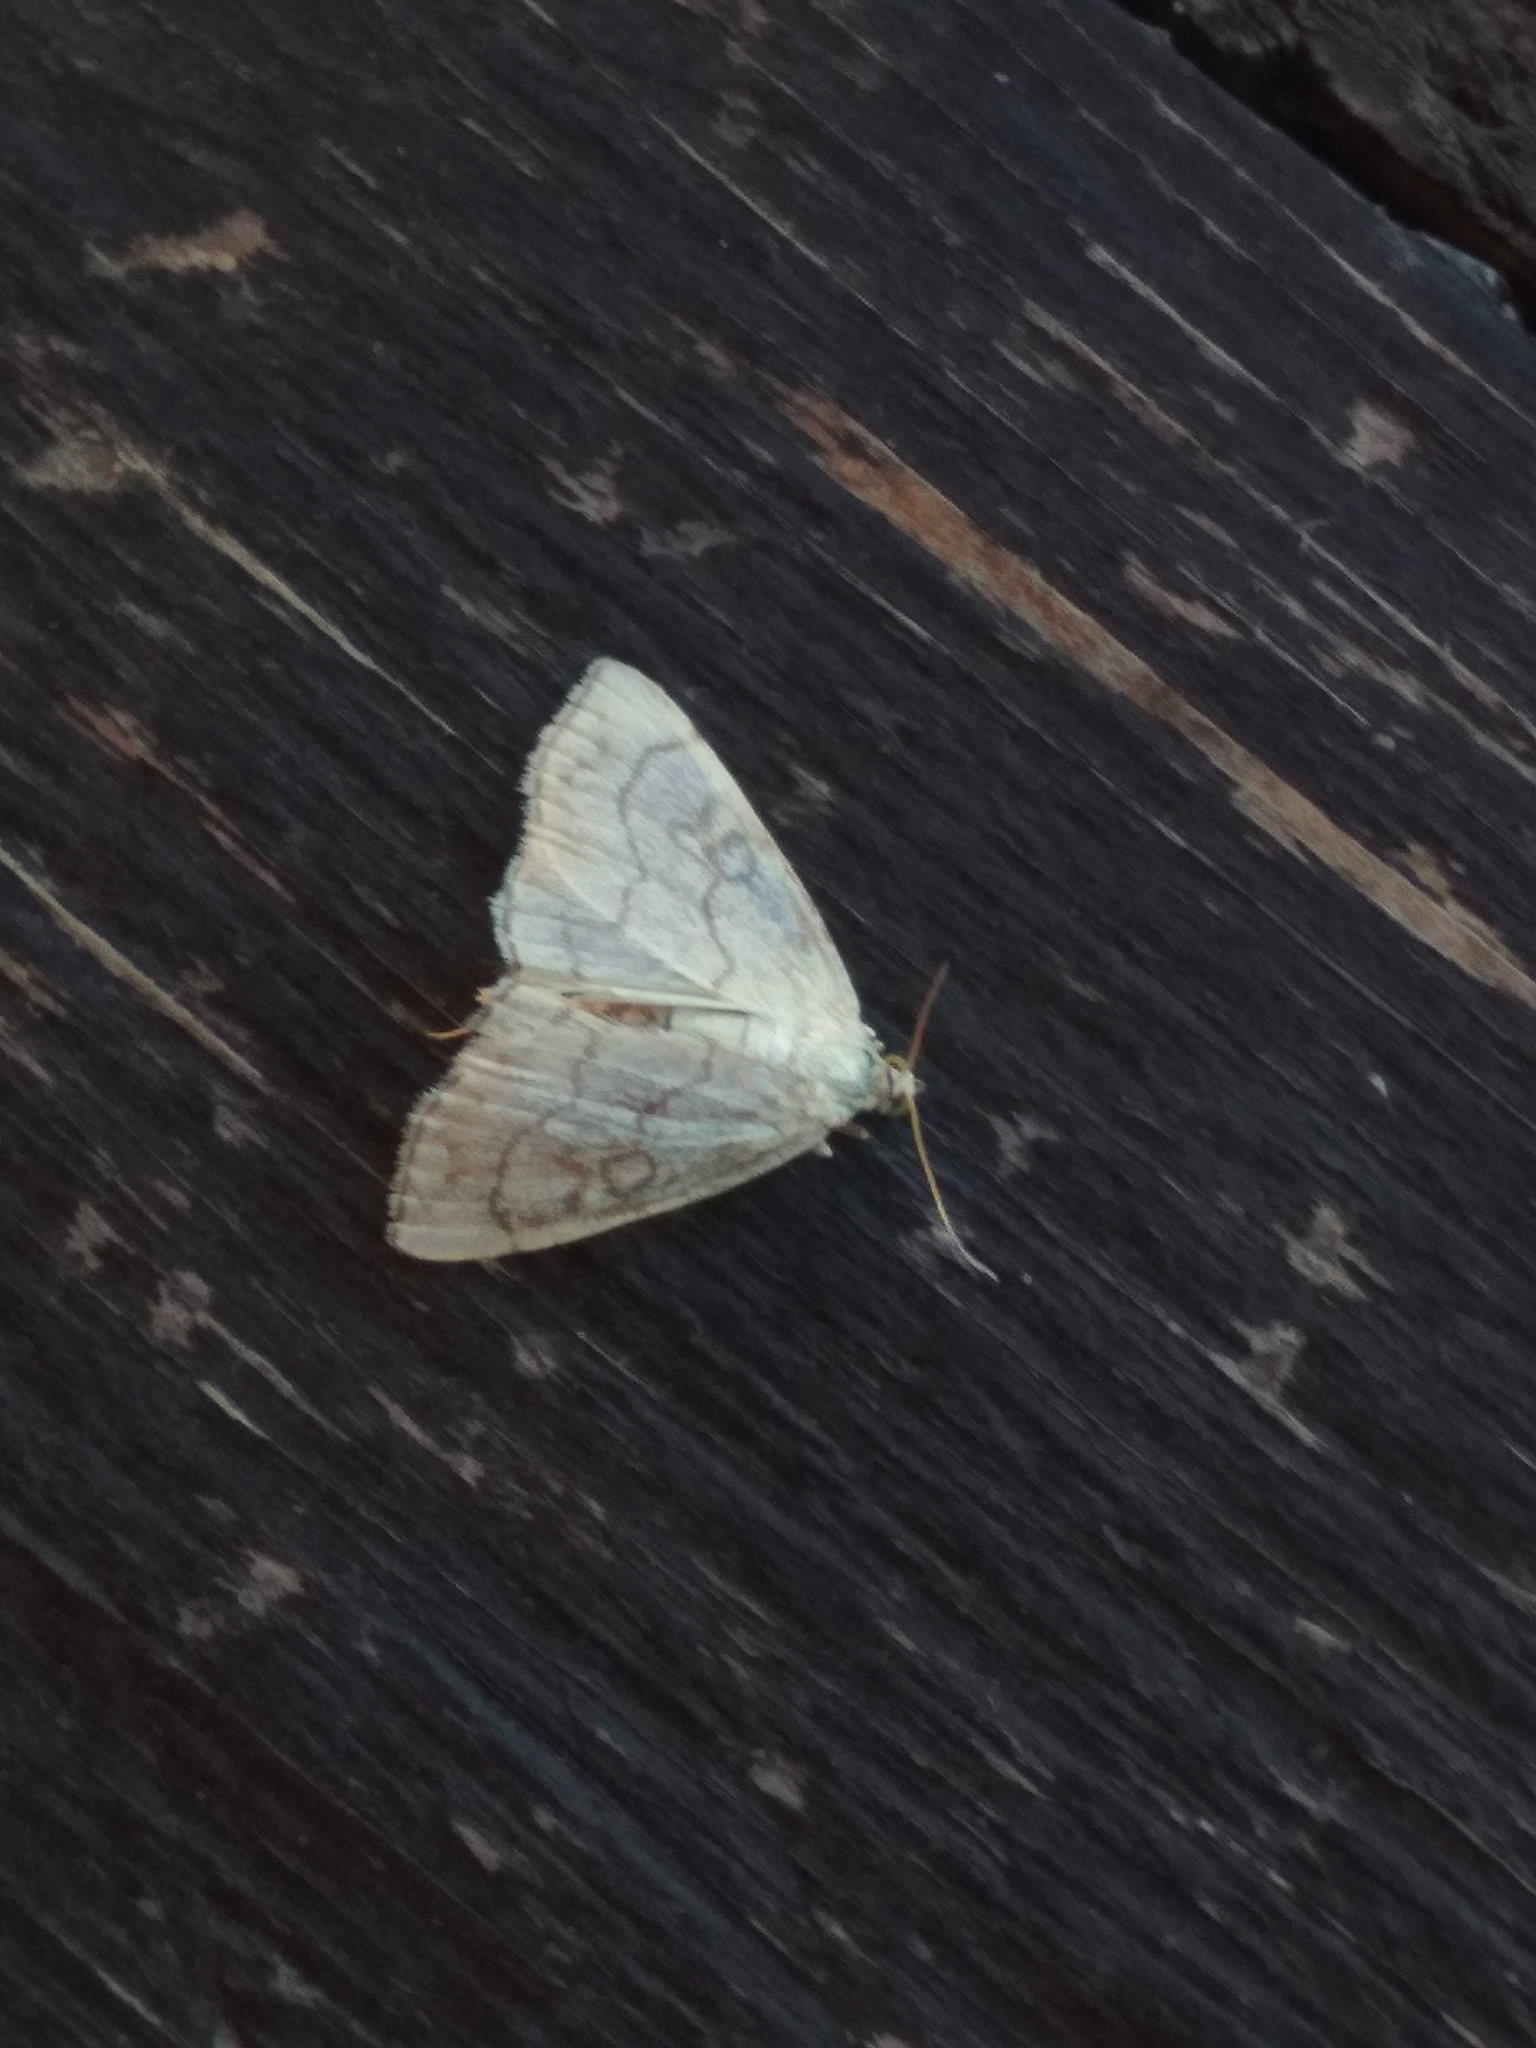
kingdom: Animalia
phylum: Arthropoda
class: Insecta
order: Lepidoptera
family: Crambidae
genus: Evergestis
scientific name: Evergestis pallidata
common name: Chequered pearl
